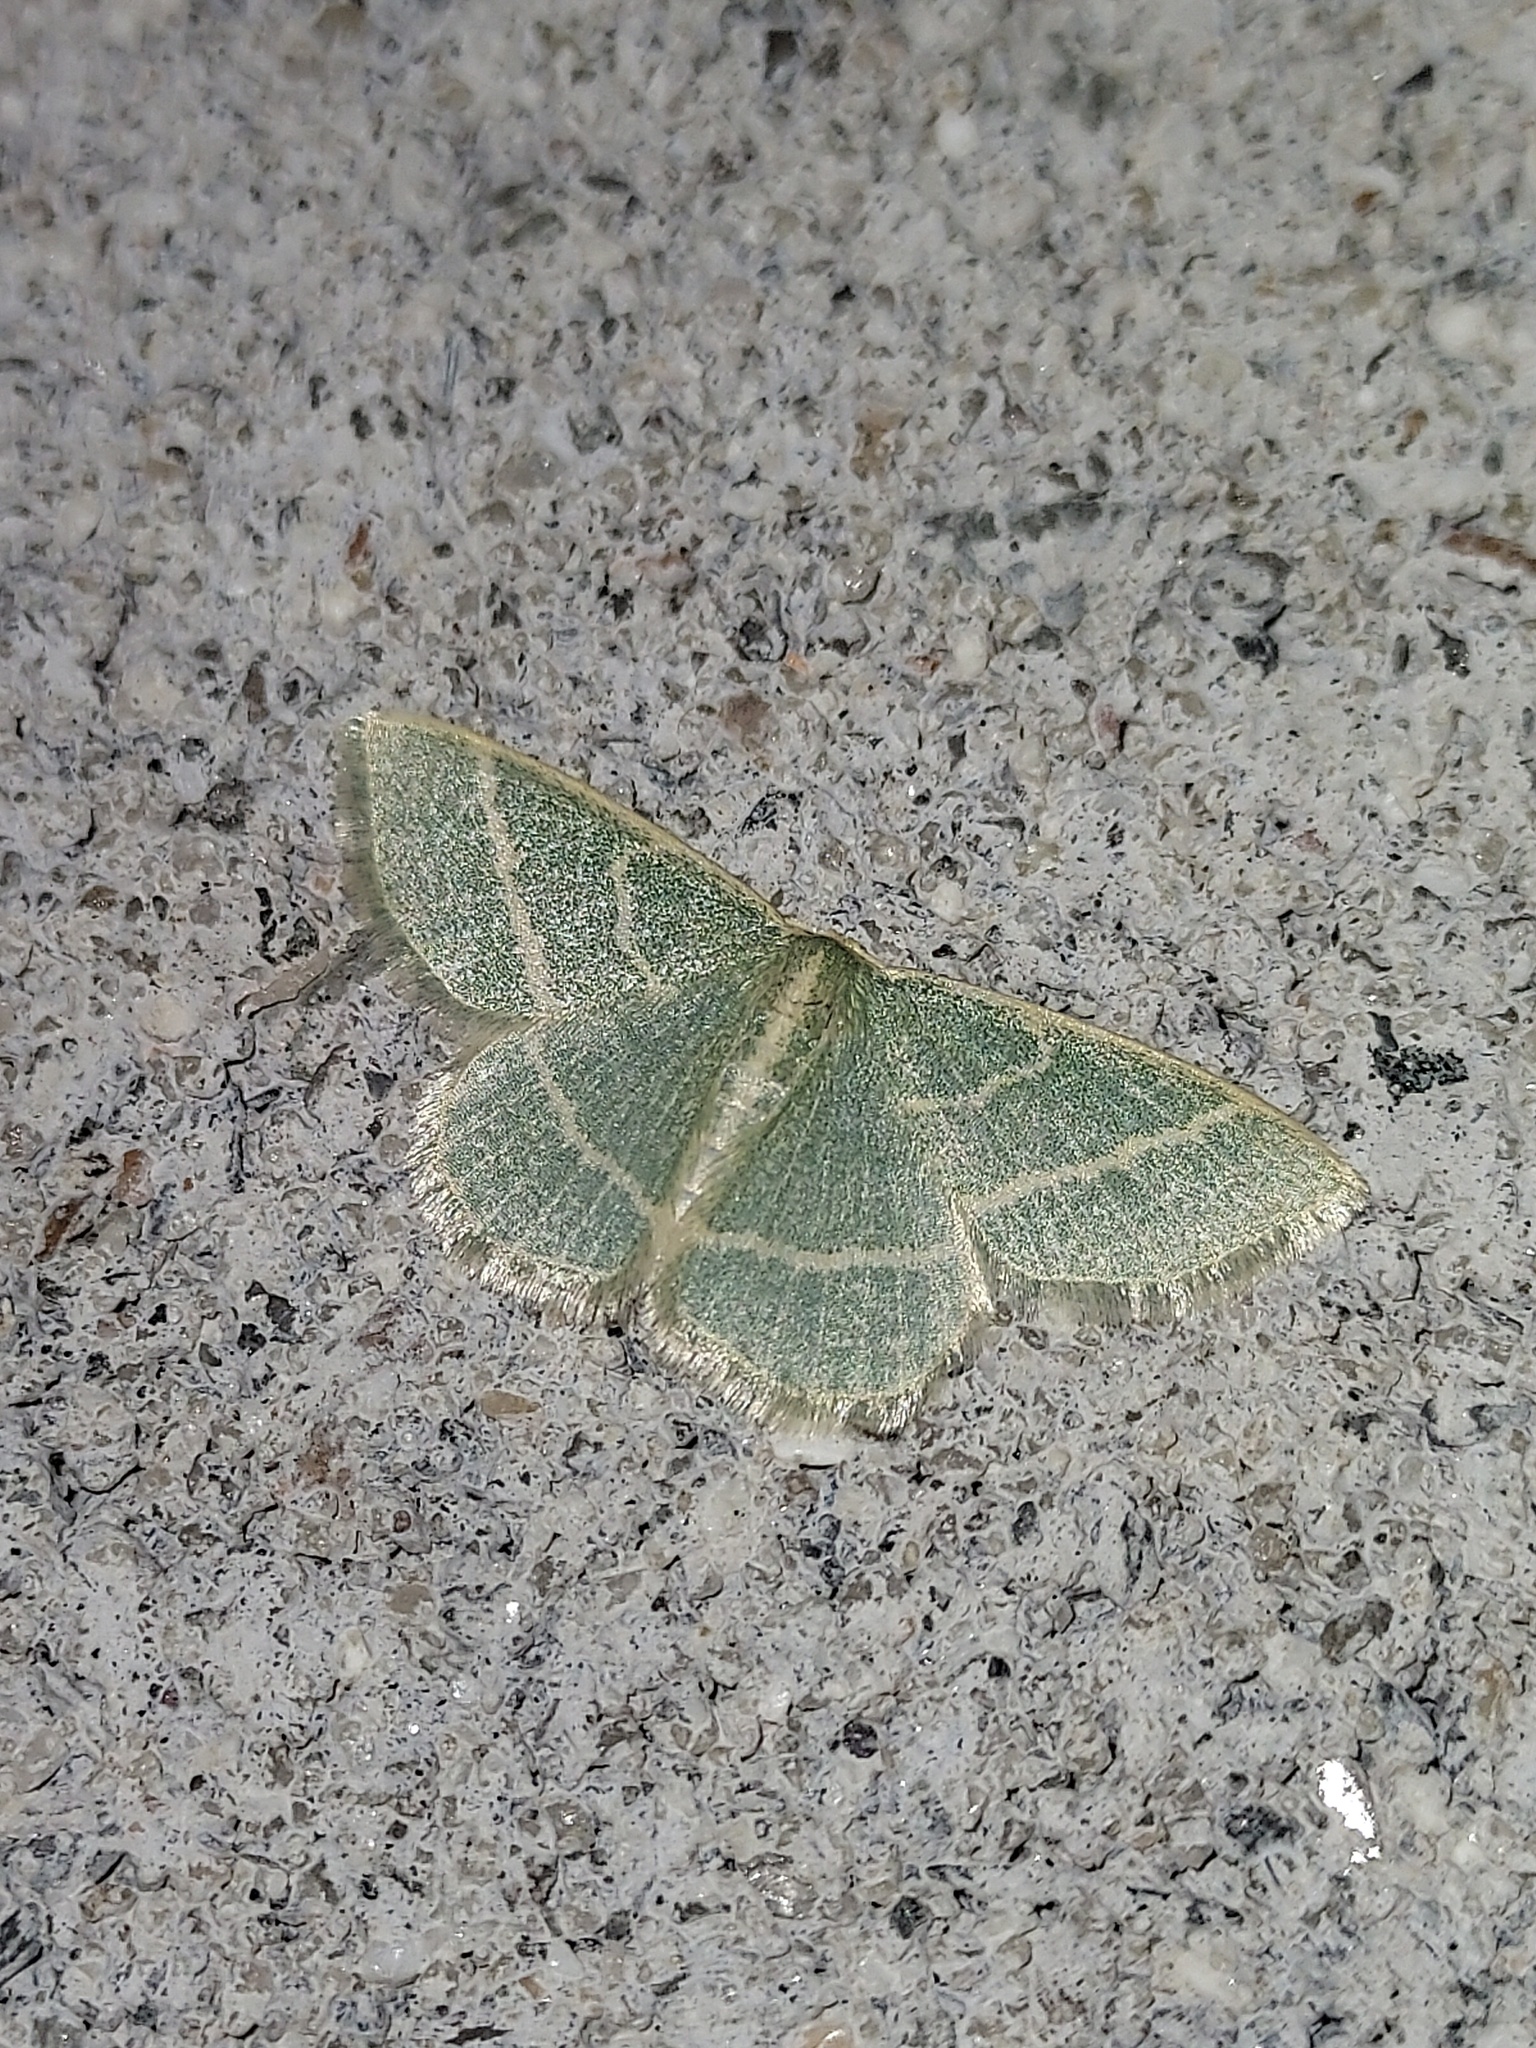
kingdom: Animalia
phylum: Arthropoda
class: Insecta
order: Lepidoptera
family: Geometridae
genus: Chlorochlamys
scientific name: Chlorochlamys chloroleucaria
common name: Blackberry looper
